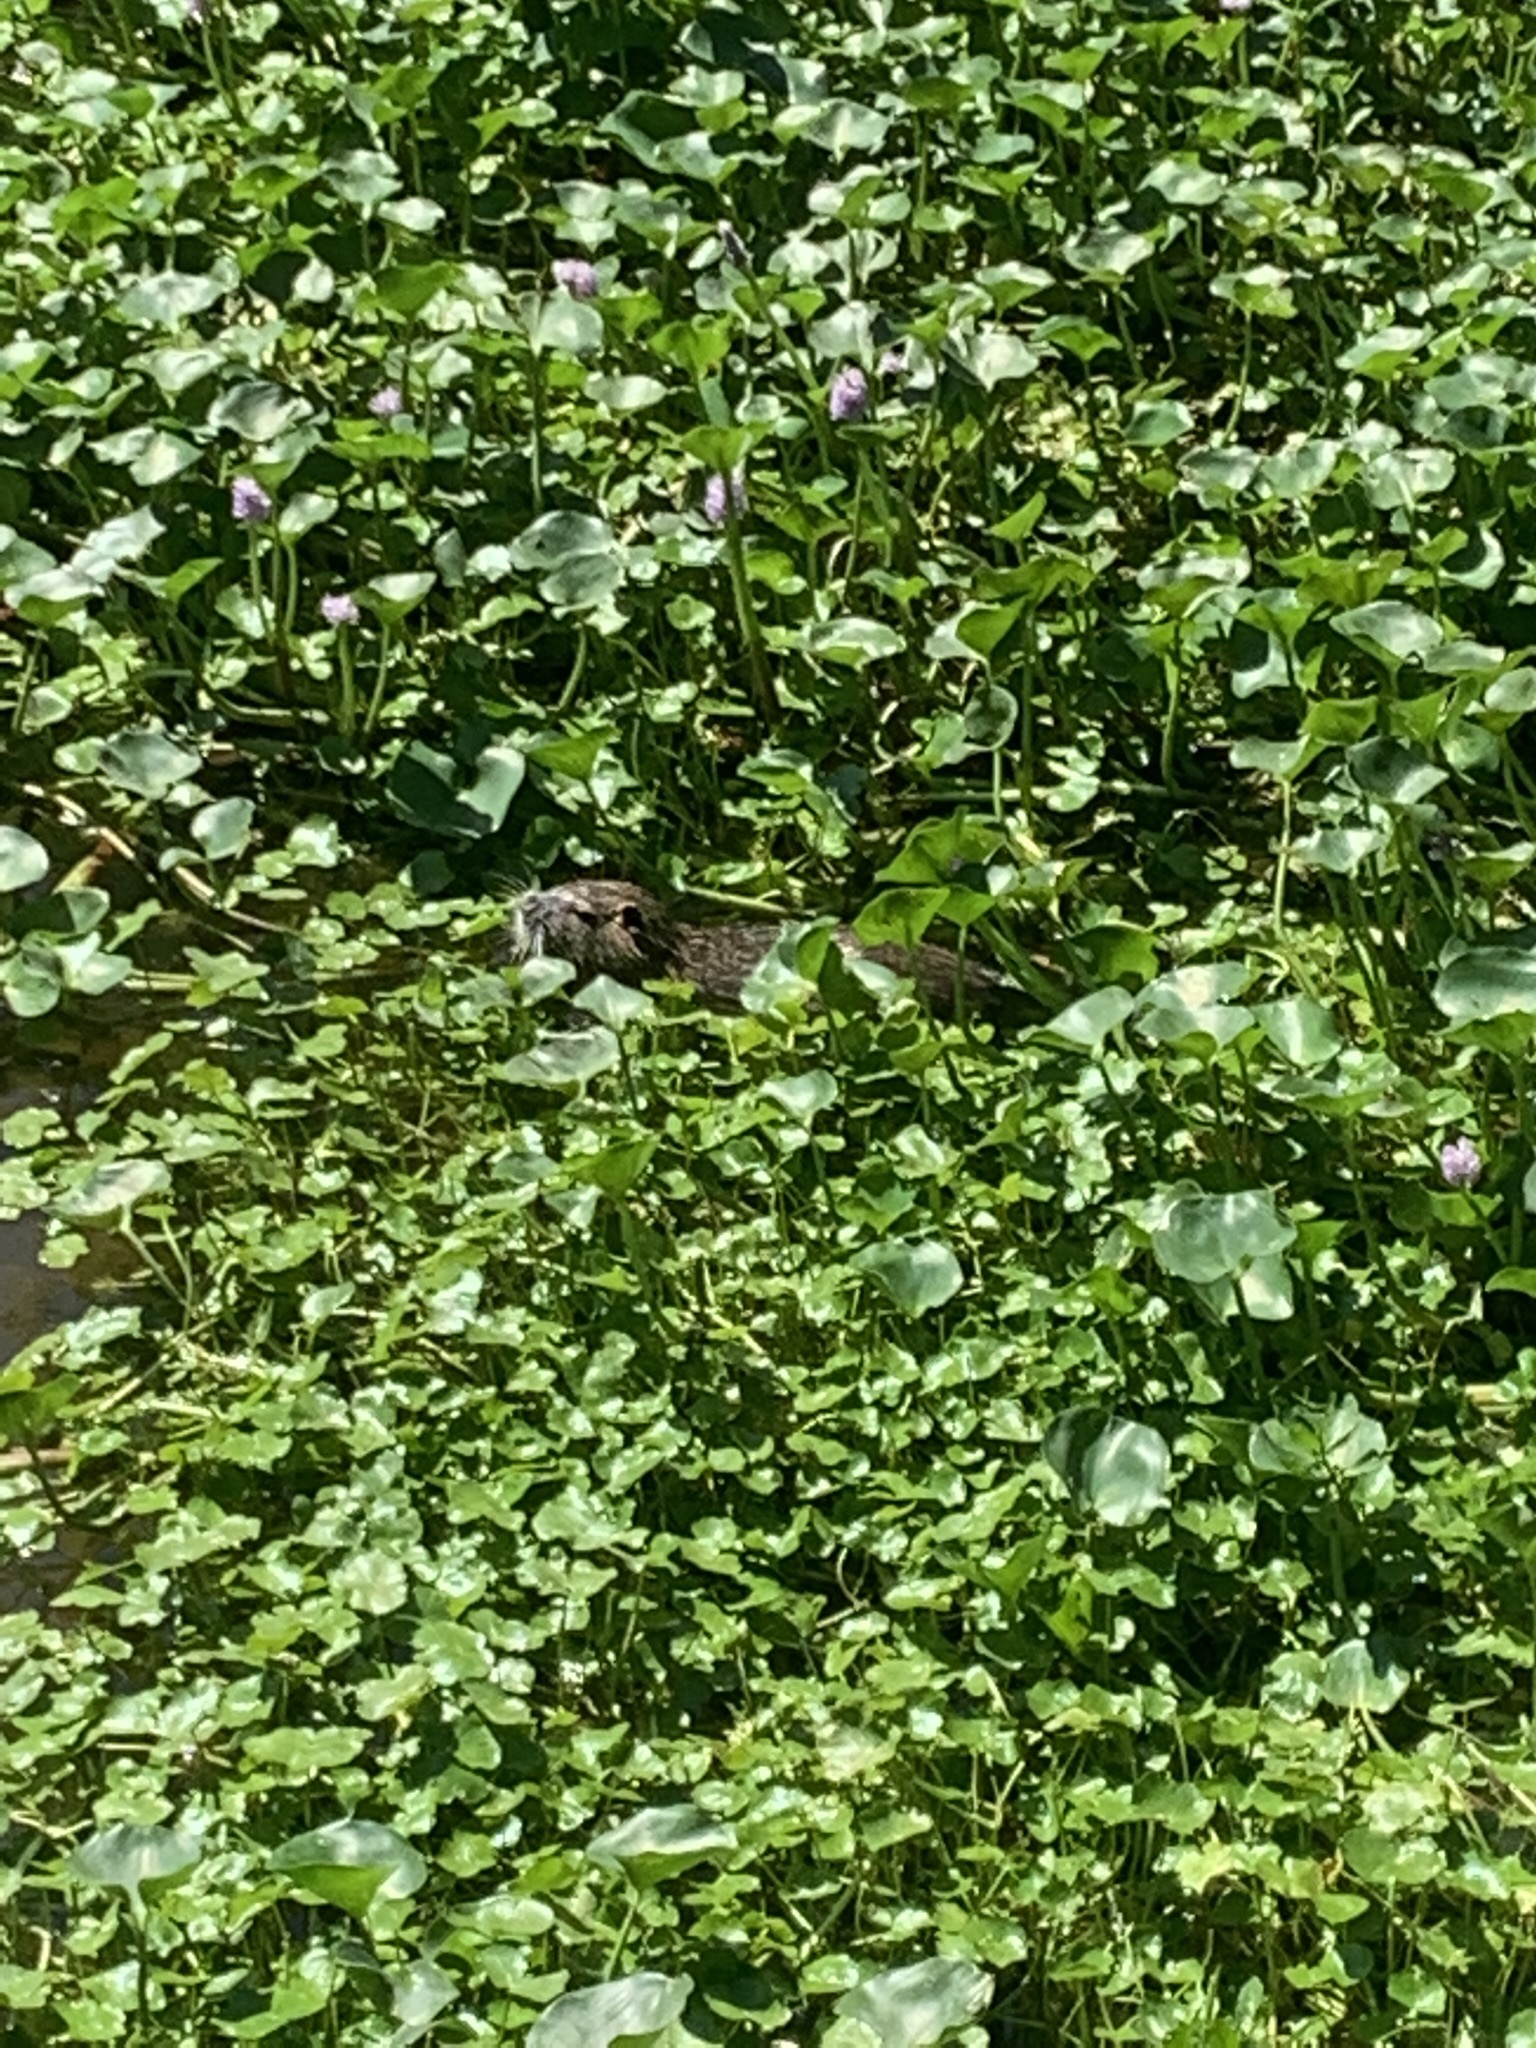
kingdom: Animalia
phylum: Chordata
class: Mammalia
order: Rodentia
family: Myocastoridae
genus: Myocastor
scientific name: Myocastor coypus
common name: Coypu
